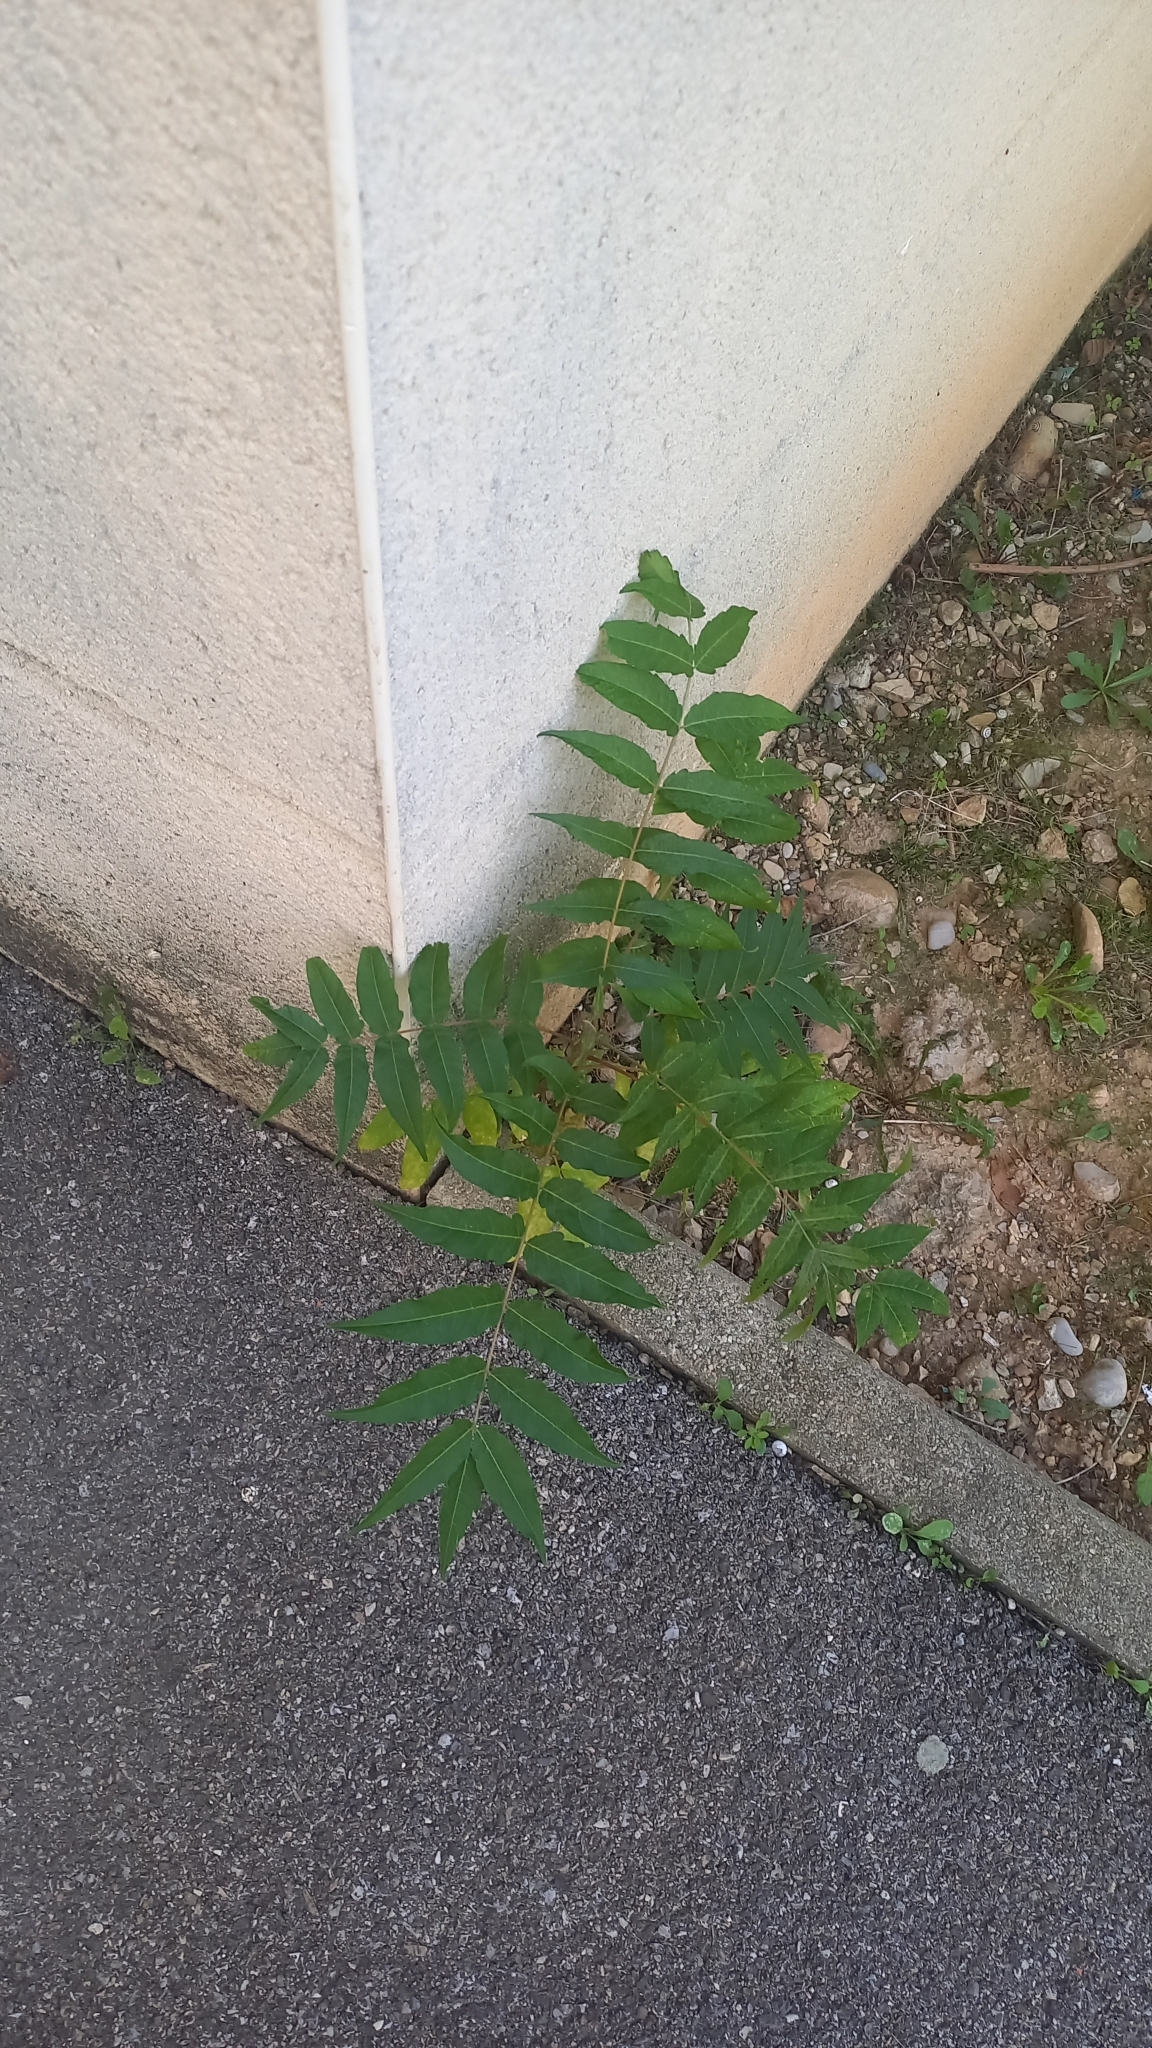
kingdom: Plantae
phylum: Tracheophyta
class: Magnoliopsida
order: Sapindales
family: Simaroubaceae
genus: Ailanthus
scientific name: Ailanthus altissima
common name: Tree-of-heaven
